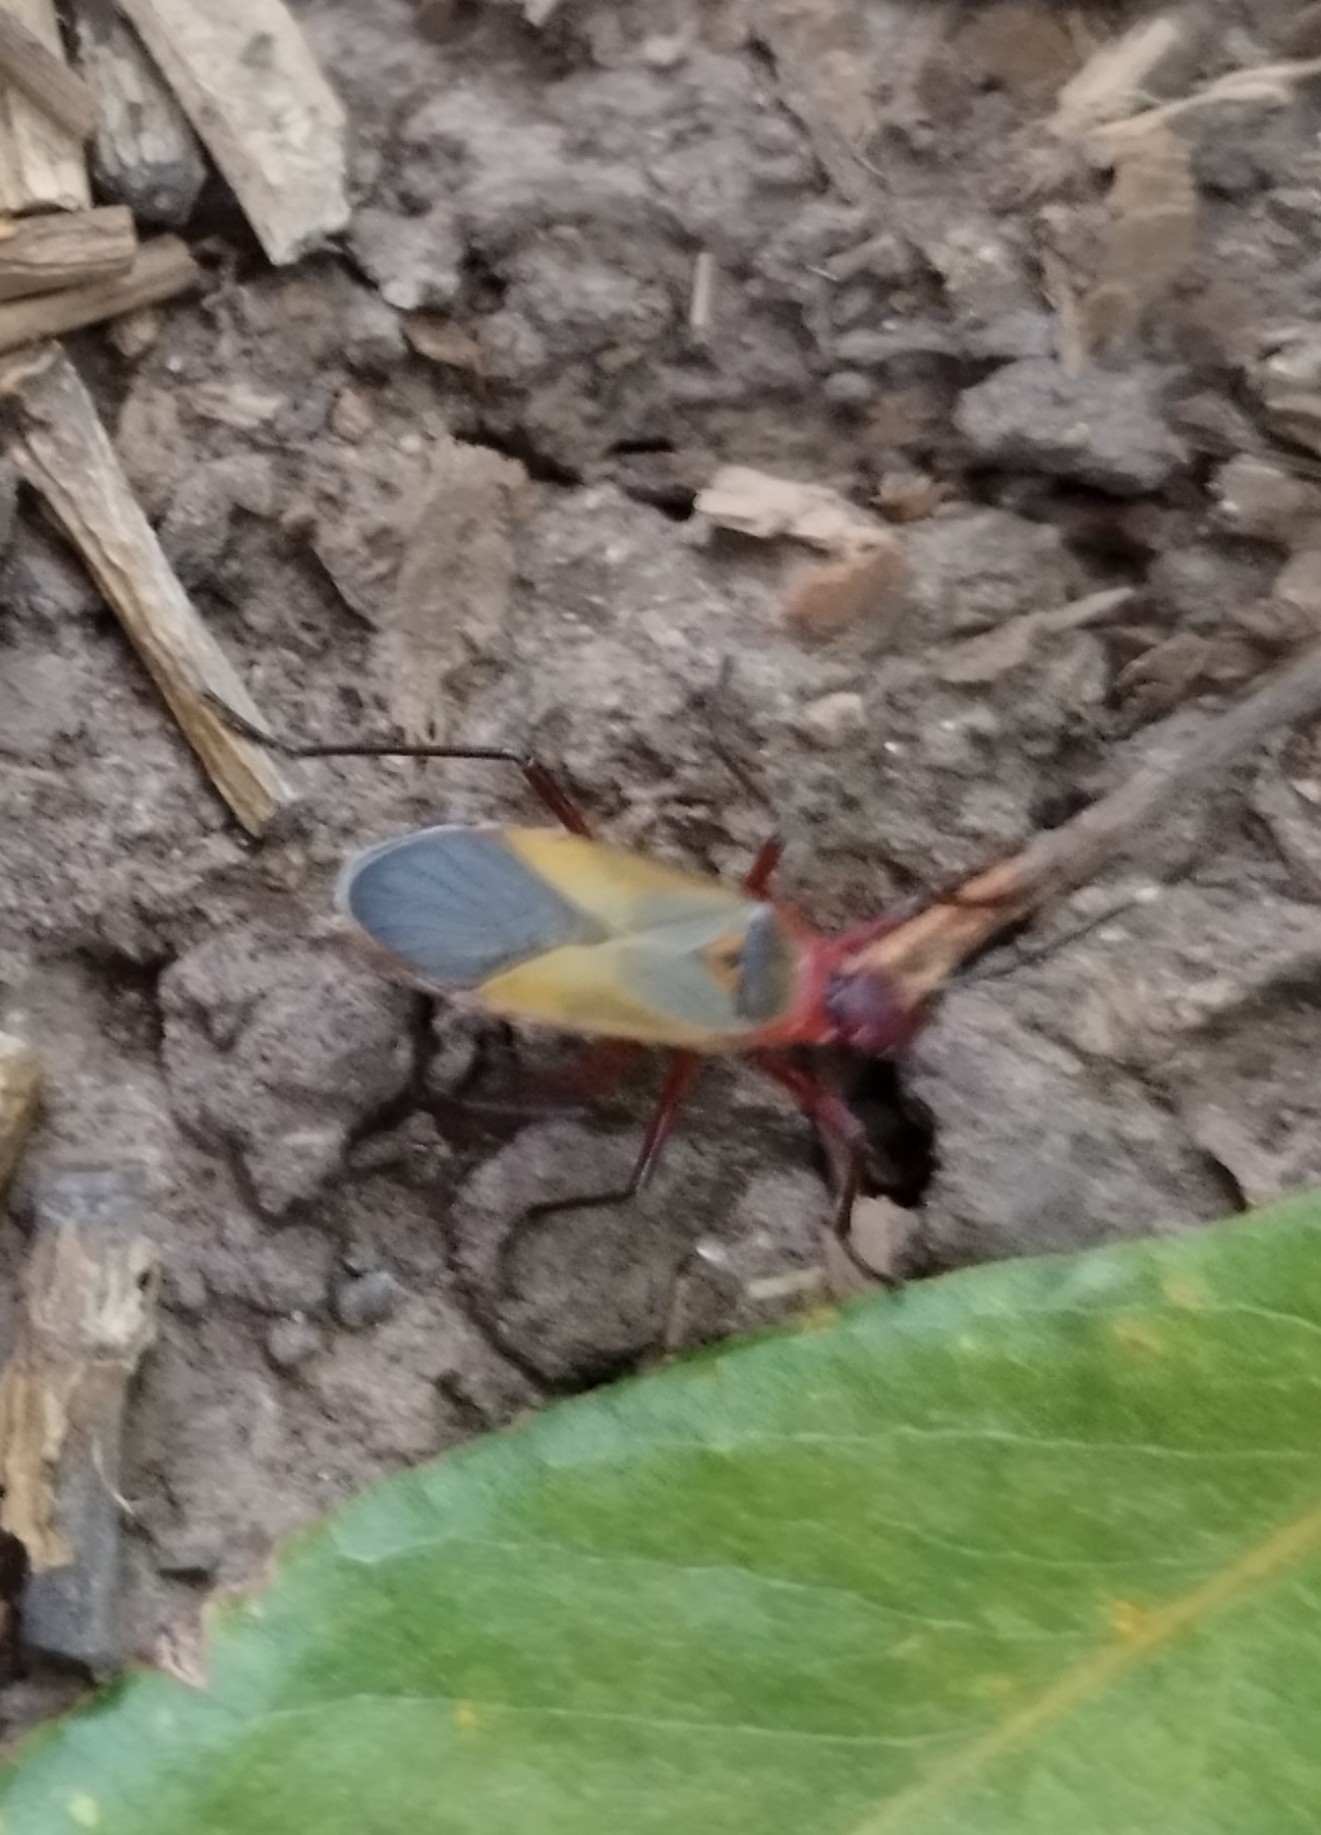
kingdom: Animalia
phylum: Arthropoda
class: Insecta
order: Hemiptera
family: Pyrrhocoridae
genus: Dysdercus
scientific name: Dysdercus
